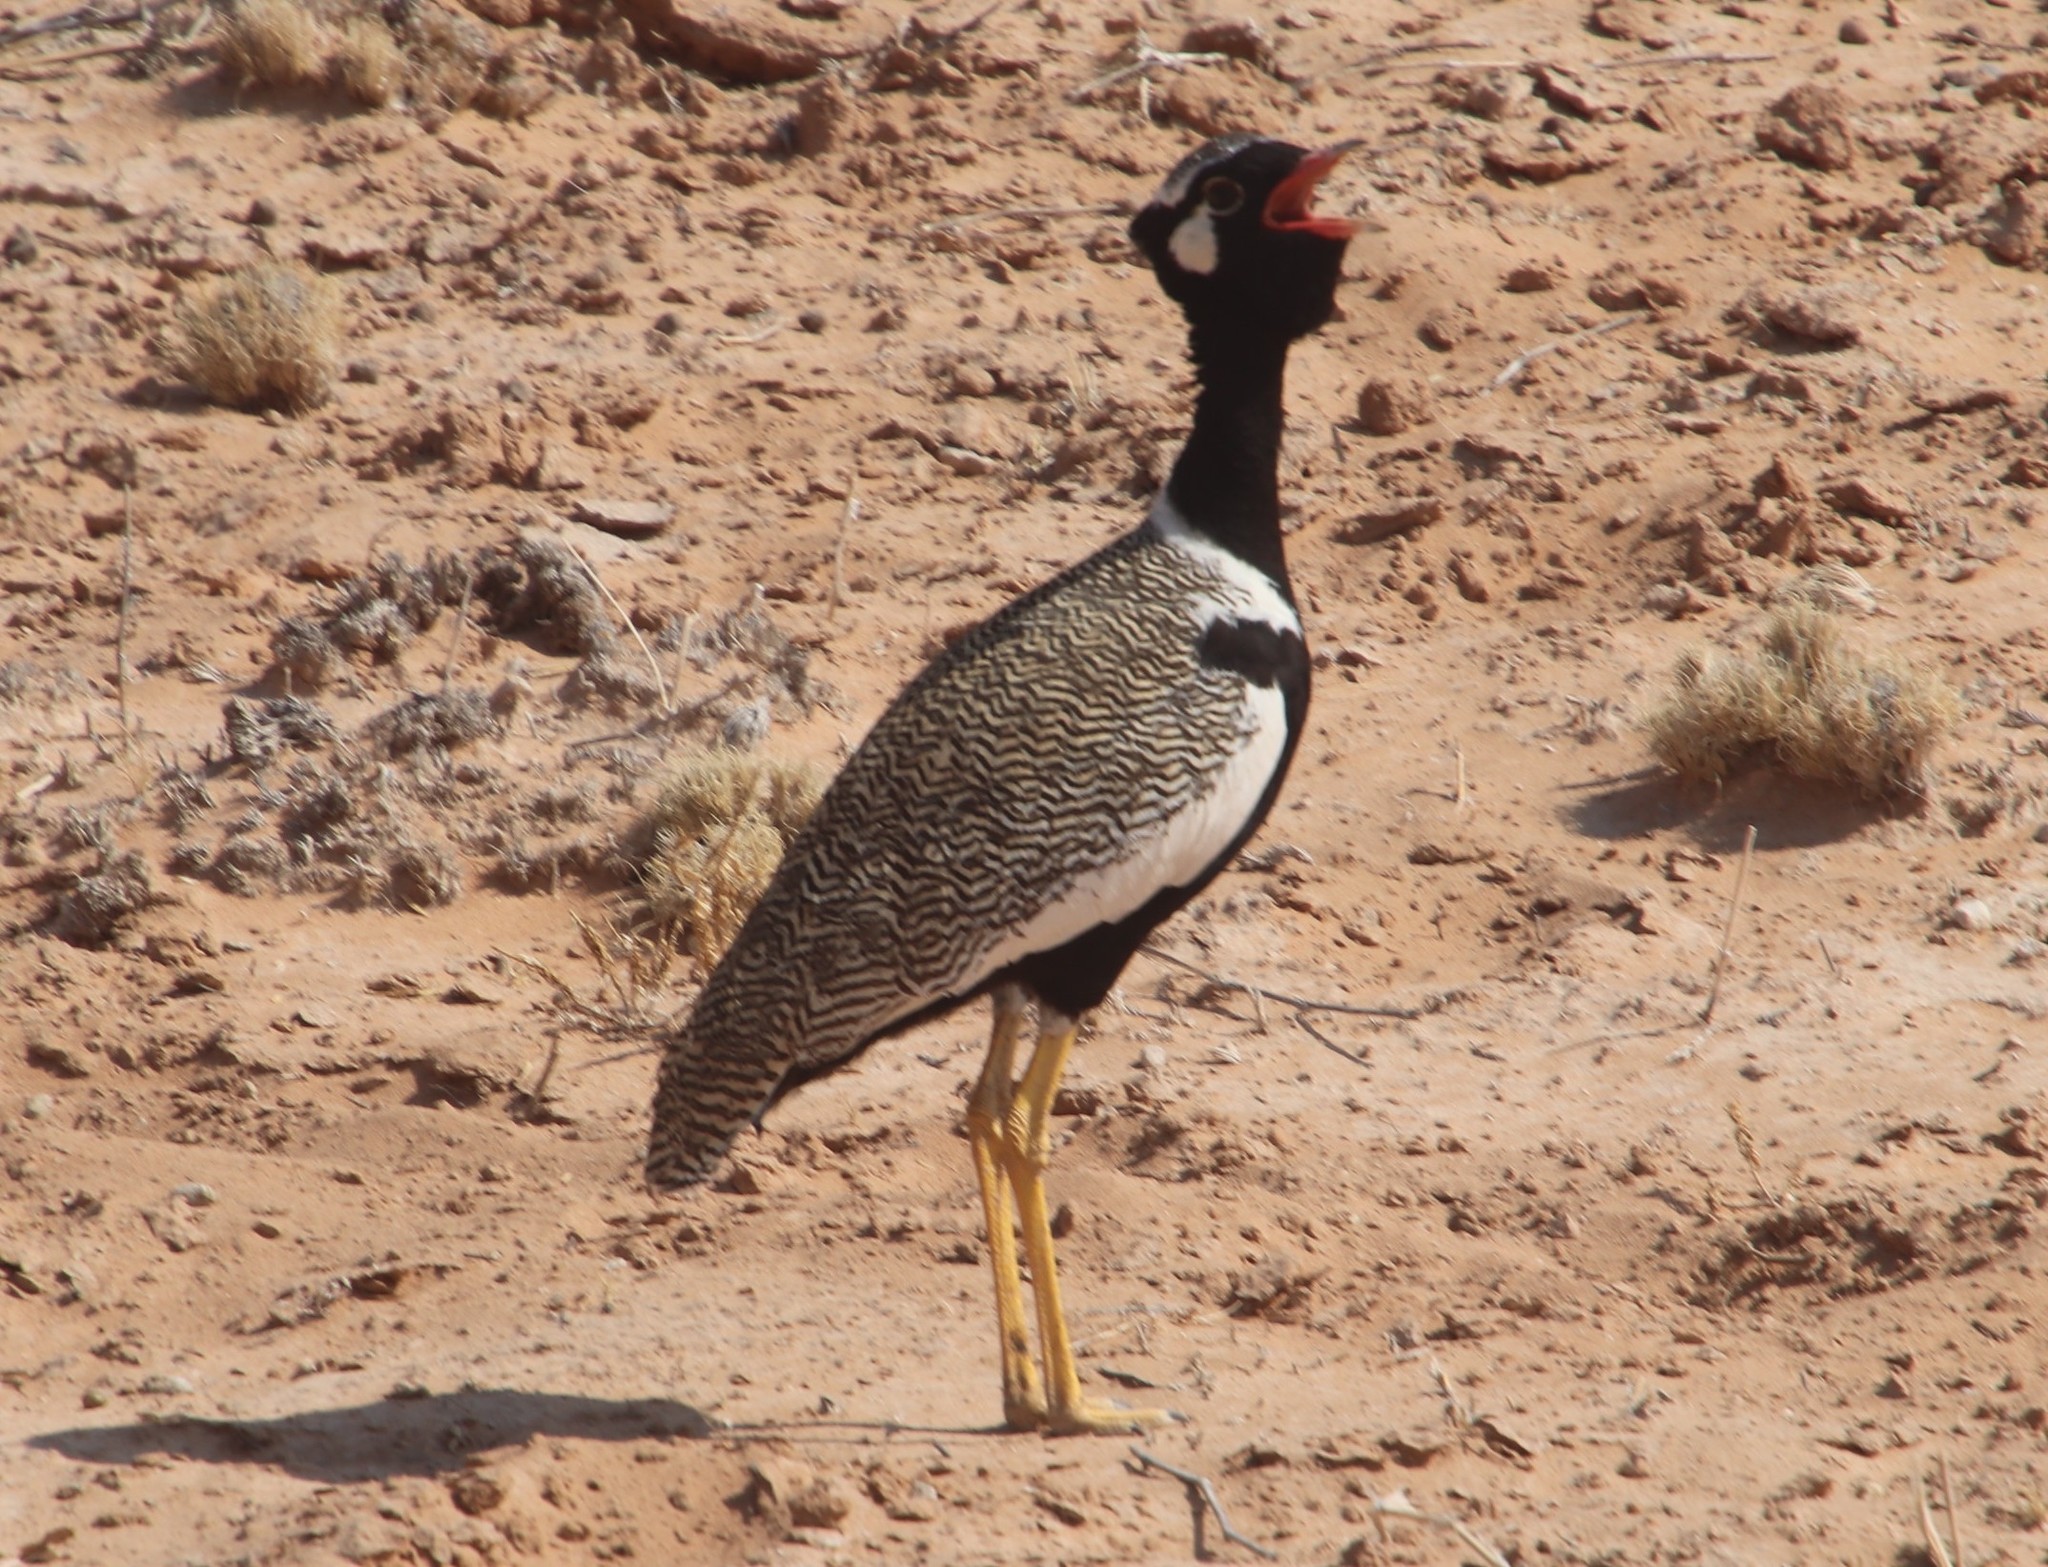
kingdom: Animalia
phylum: Chordata
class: Aves
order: Otidiformes
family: Otididae
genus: Afrotis
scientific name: Afrotis afraoides
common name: Northern black korhaan
